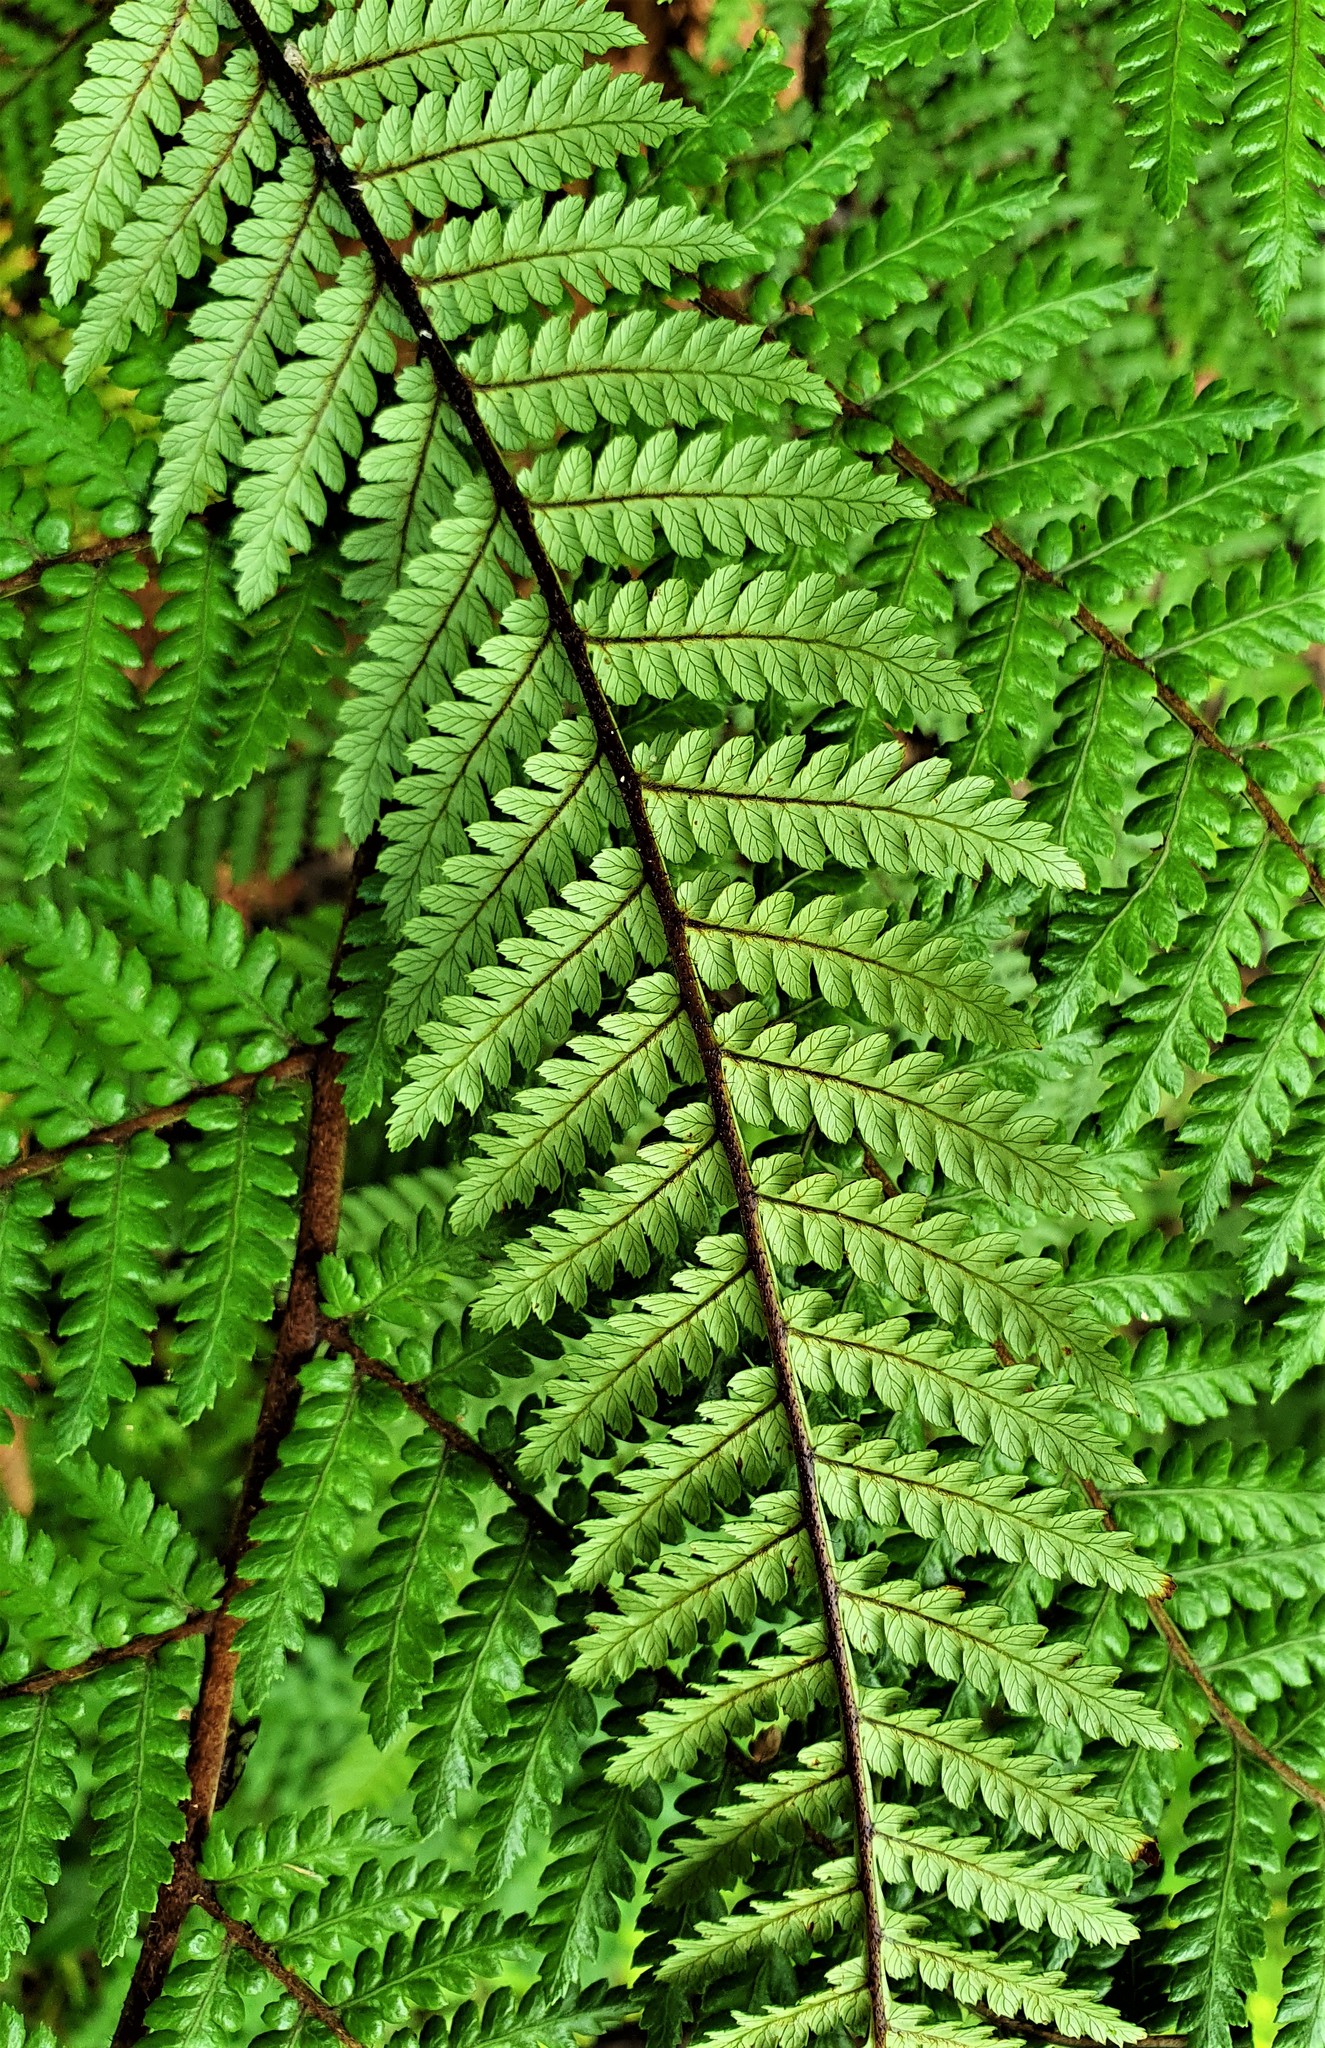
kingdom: Plantae
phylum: Tracheophyta
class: Polypodiopsida
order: Cyatheales
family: Dicksoniaceae
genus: Dicksonia
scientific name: Dicksonia squarrosa
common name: Hard treefern
